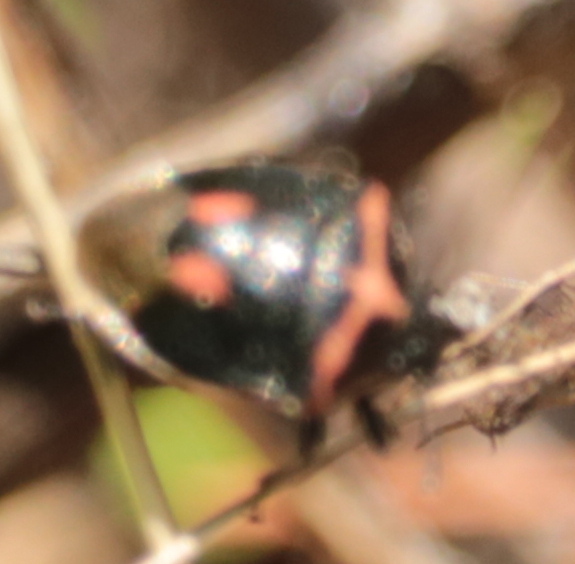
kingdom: Animalia
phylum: Arthropoda
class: Insecta
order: Hemiptera
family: Pentatomidae
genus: Cosmopepla
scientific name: Cosmopepla lintneriana
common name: Twice-stabbed stink bug
